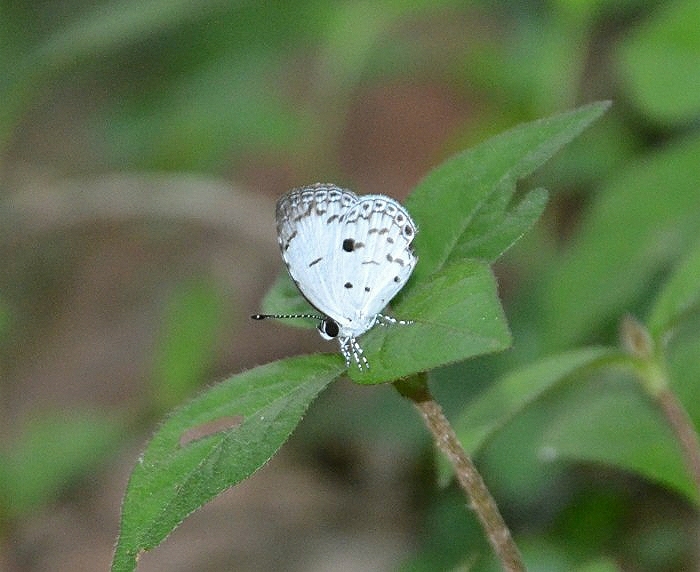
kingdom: Animalia
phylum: Arthropoda
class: Insecta
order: Lepidoptera
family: Lycaenidae
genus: Neopithecops
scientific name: Neopithecops zalmora
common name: Quaker
